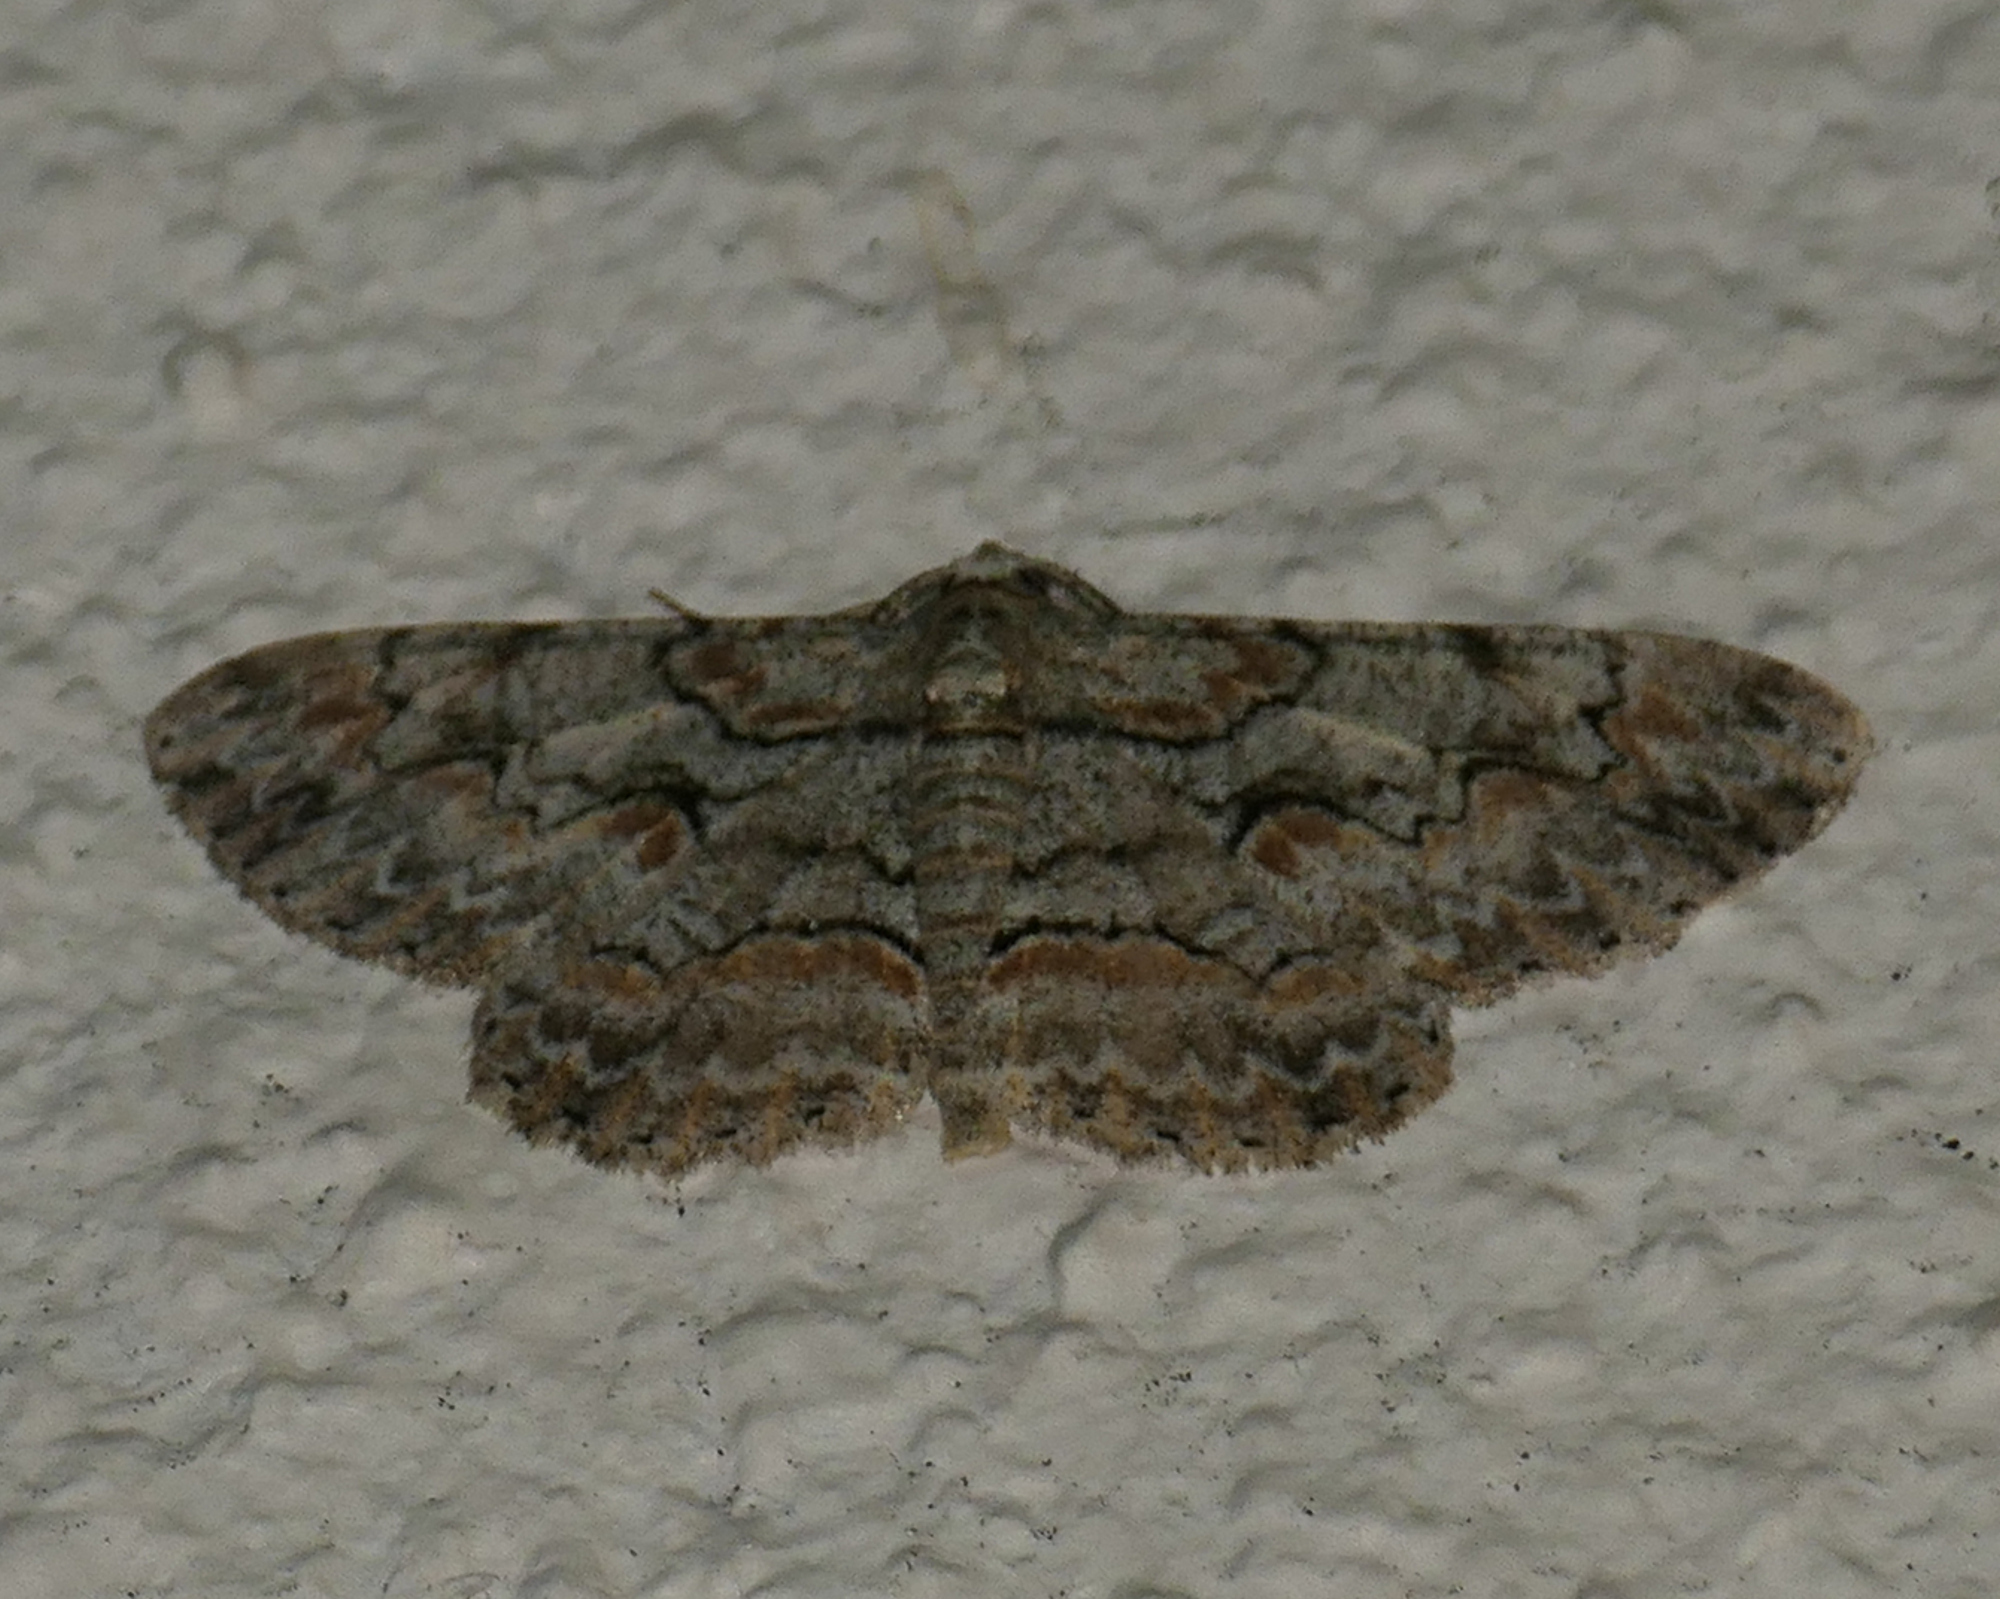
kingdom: Animalia
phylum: Arthropoda
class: Insecta
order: Lepidoptera
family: Geometridae
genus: Iridopsis
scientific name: Iridopsis defectaria
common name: Brown-shaded gray
